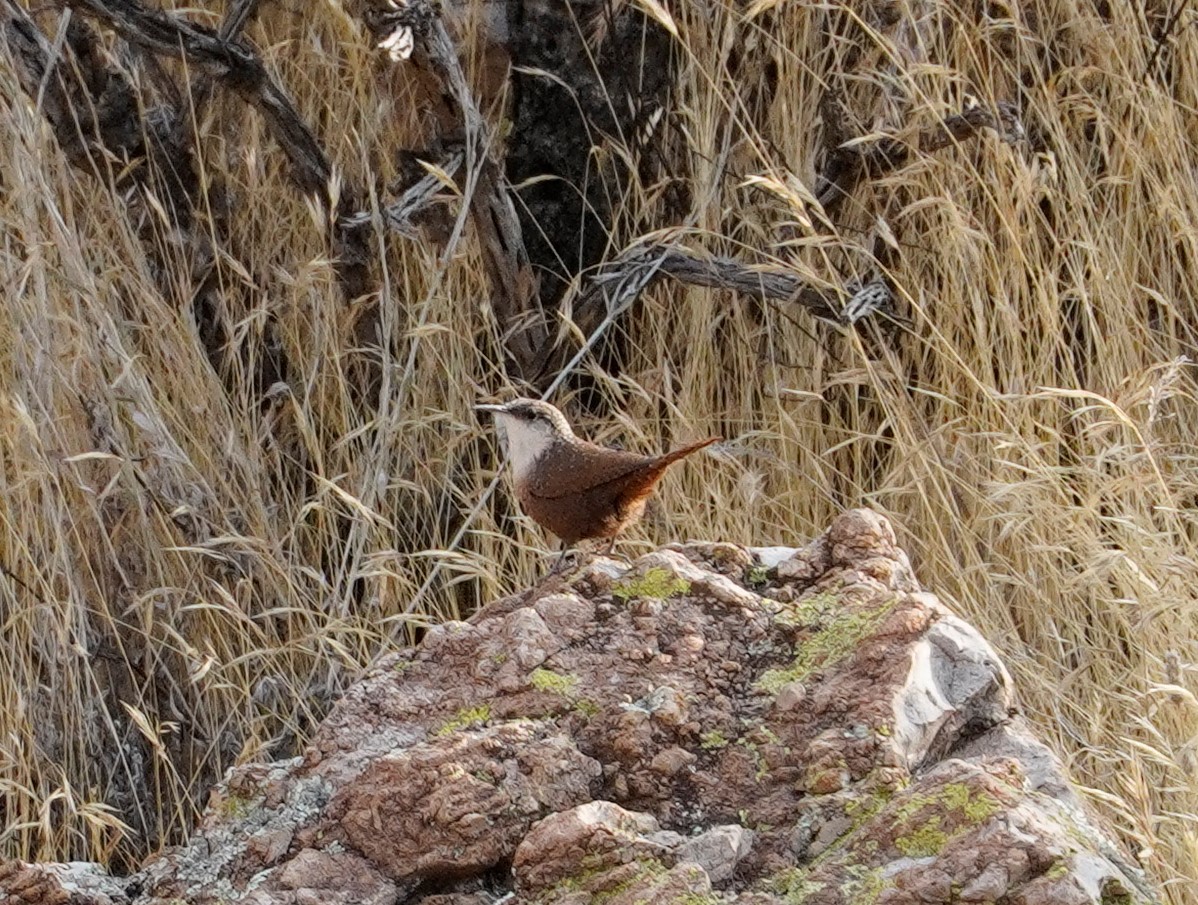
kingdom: Animalia
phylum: Chordata
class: Aves
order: Passeriformes
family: Troglodytidae
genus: Catherpes
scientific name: Catherpes mexicanus
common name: Canyon wren
